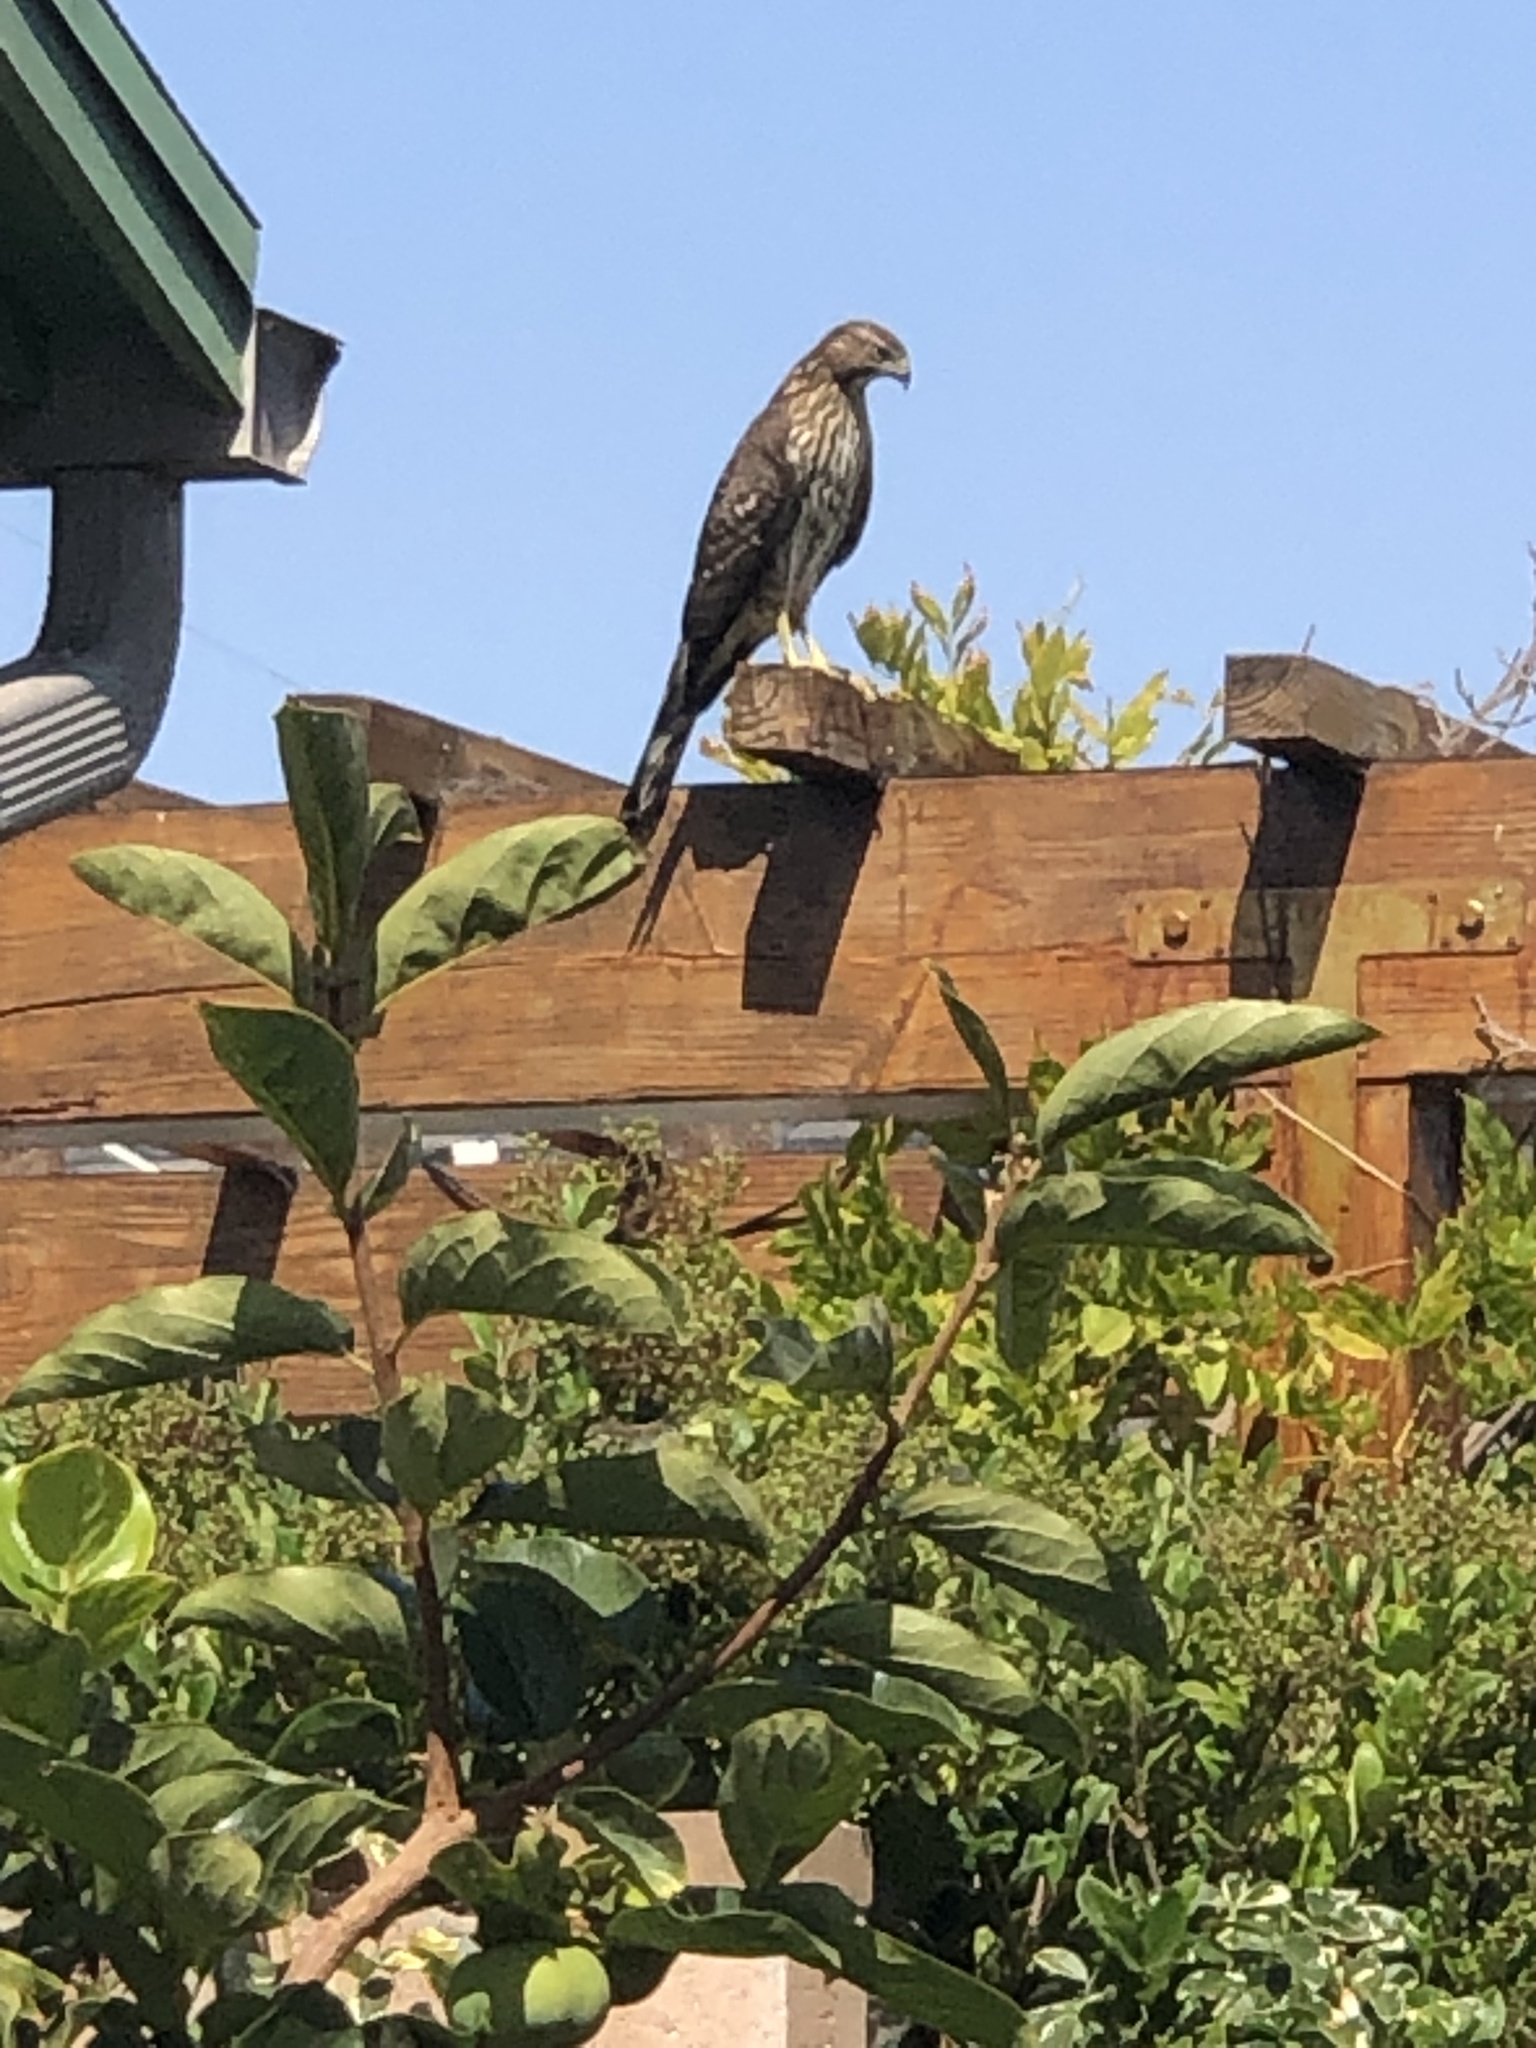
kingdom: Animalia
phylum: Chordata
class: Aves
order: Accipitriformes
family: Accipitridae
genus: Accipiter
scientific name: Accipiter cooperii
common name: Cooper's hawk
